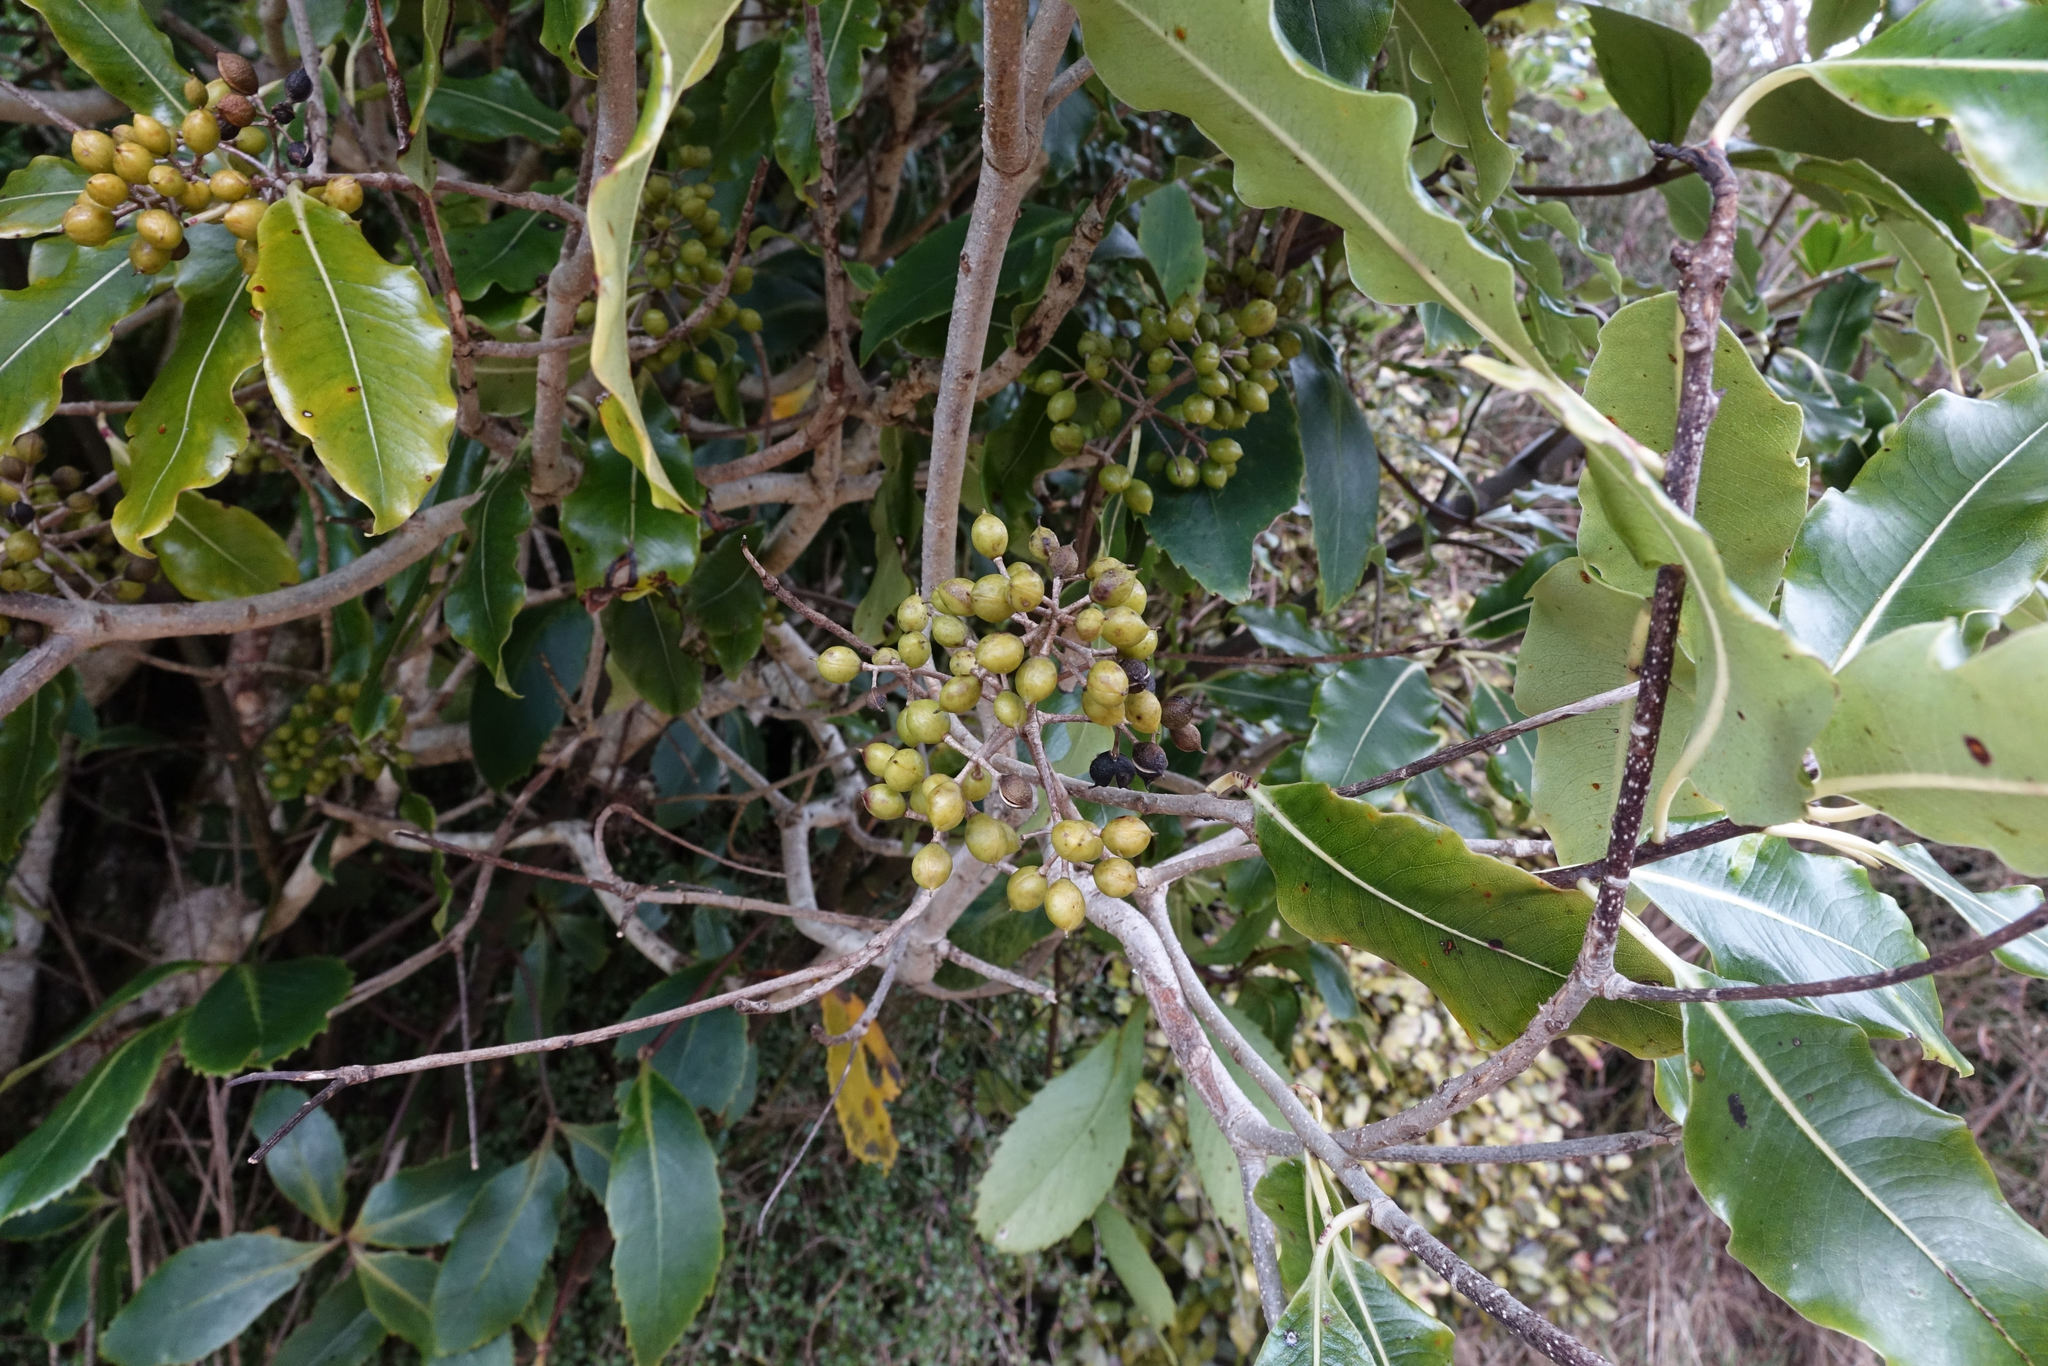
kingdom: Plantae
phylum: Tracheophyta
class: Magnoliopsida
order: Apiales
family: Pittosporaceae
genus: Pittosporum
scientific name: Pittosporum eugenioides
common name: Lemonwood
